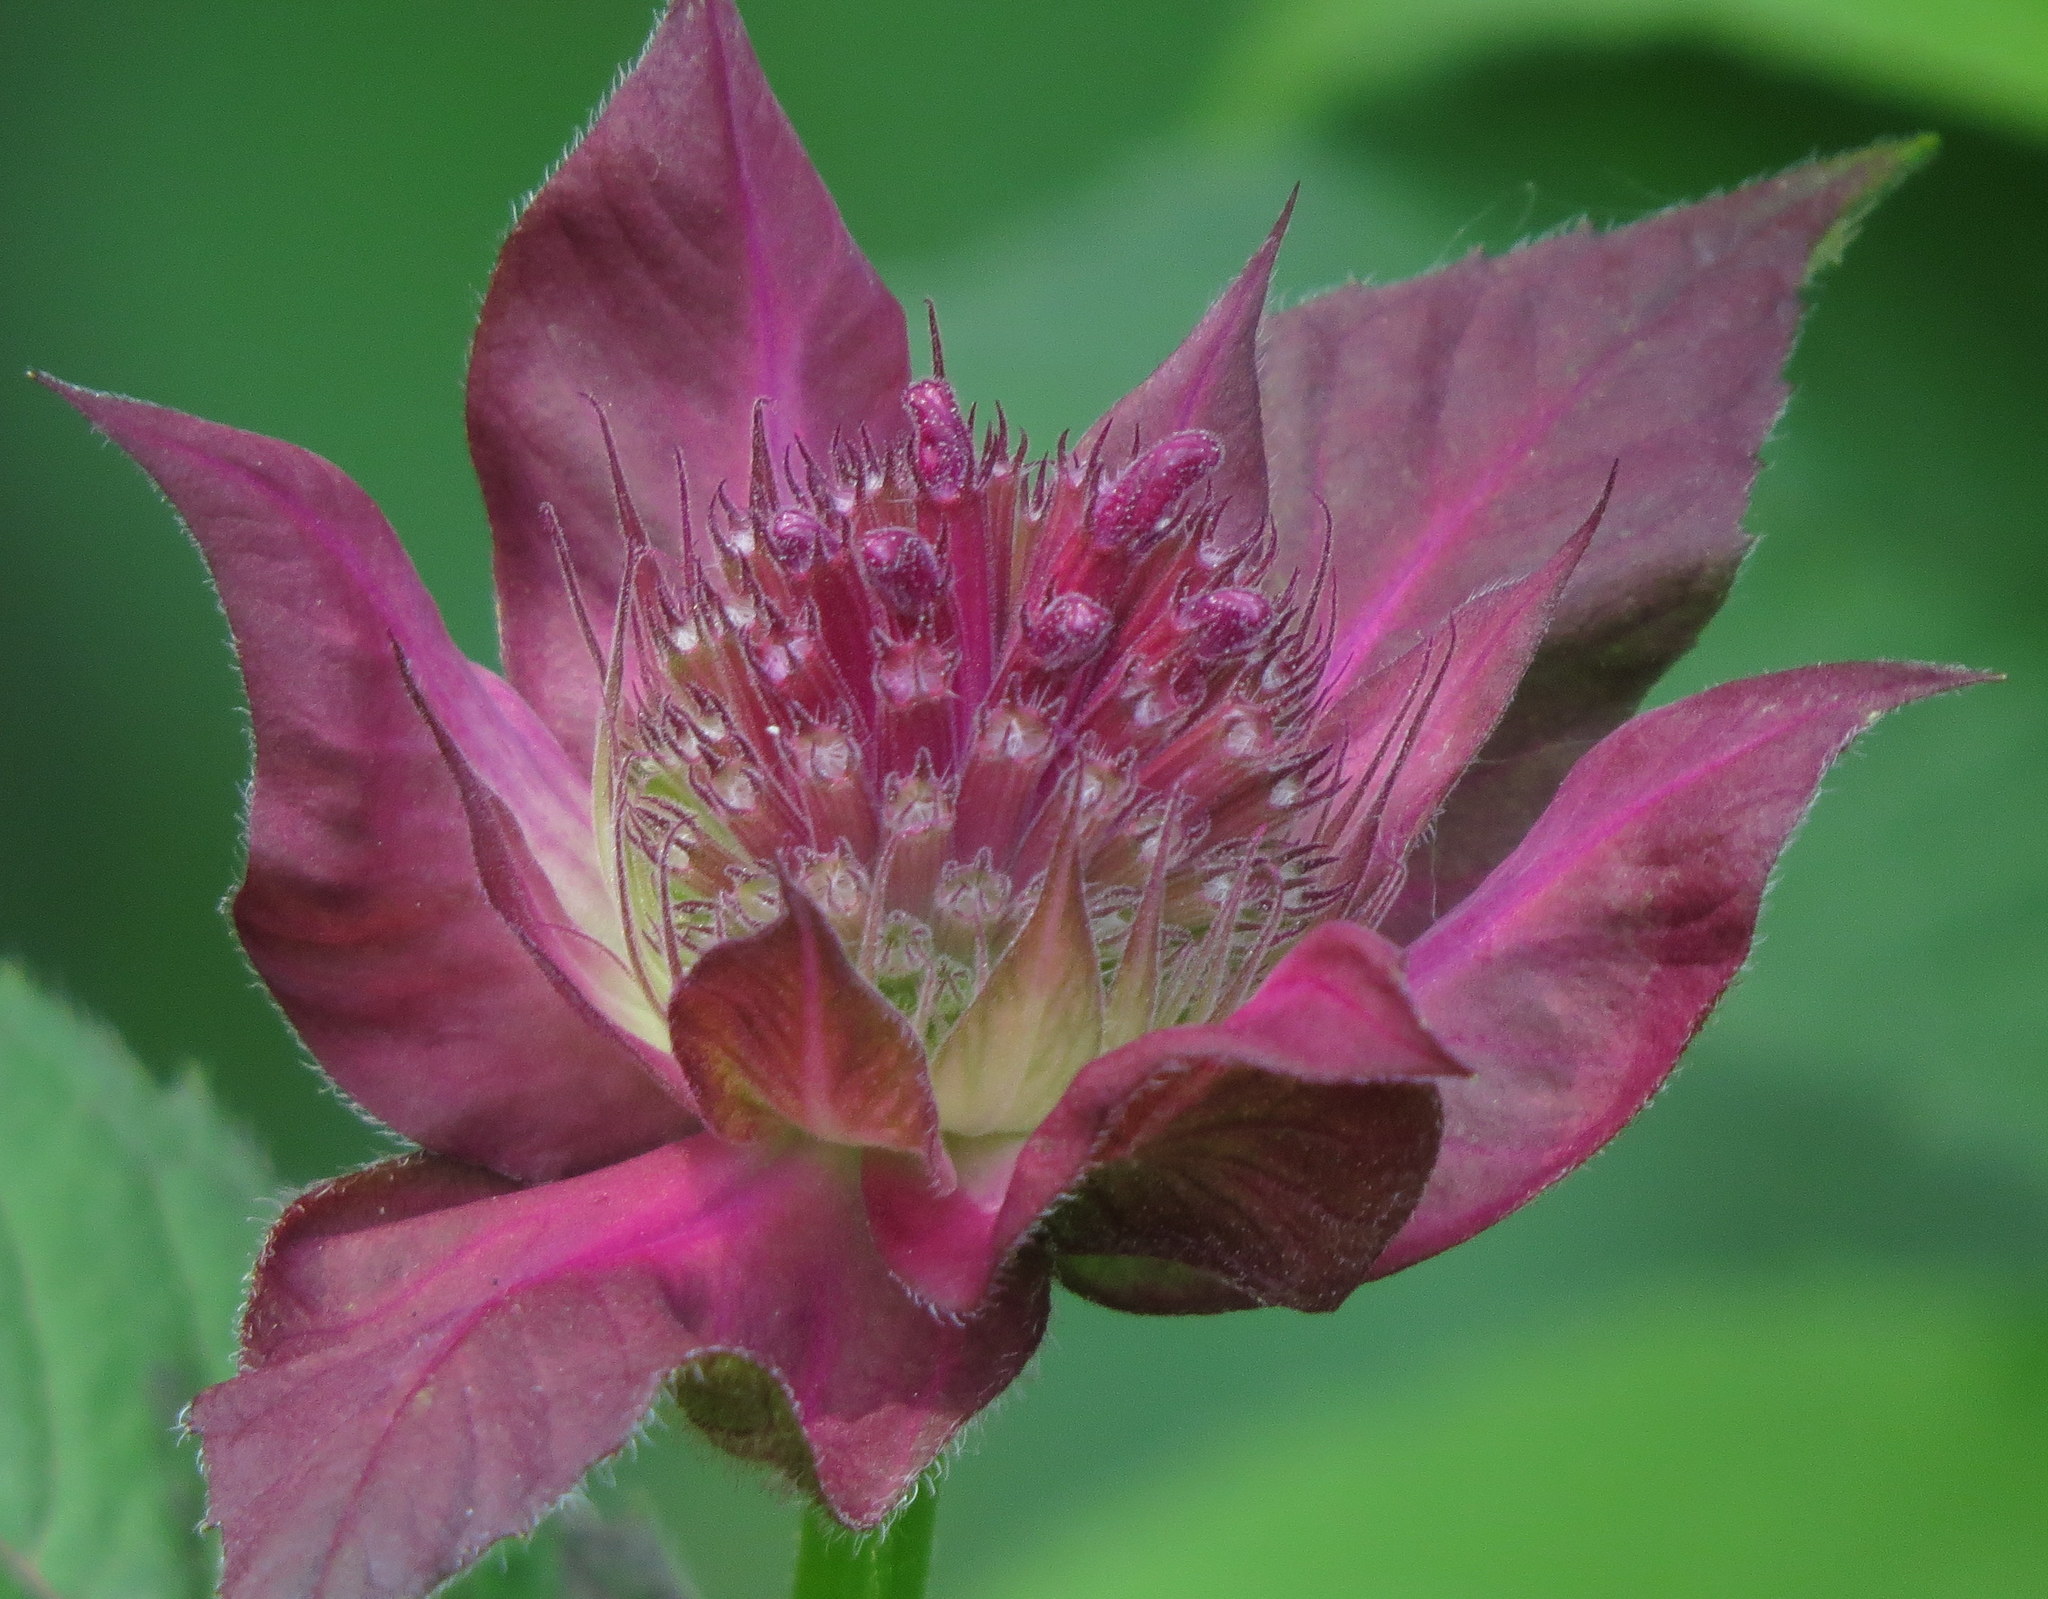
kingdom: Plantae
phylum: Tracheophyta
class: Magnoliopsida
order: Lamiales
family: Lamiaceae
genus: Monarda
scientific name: Monarda didyma
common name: Beebalm
